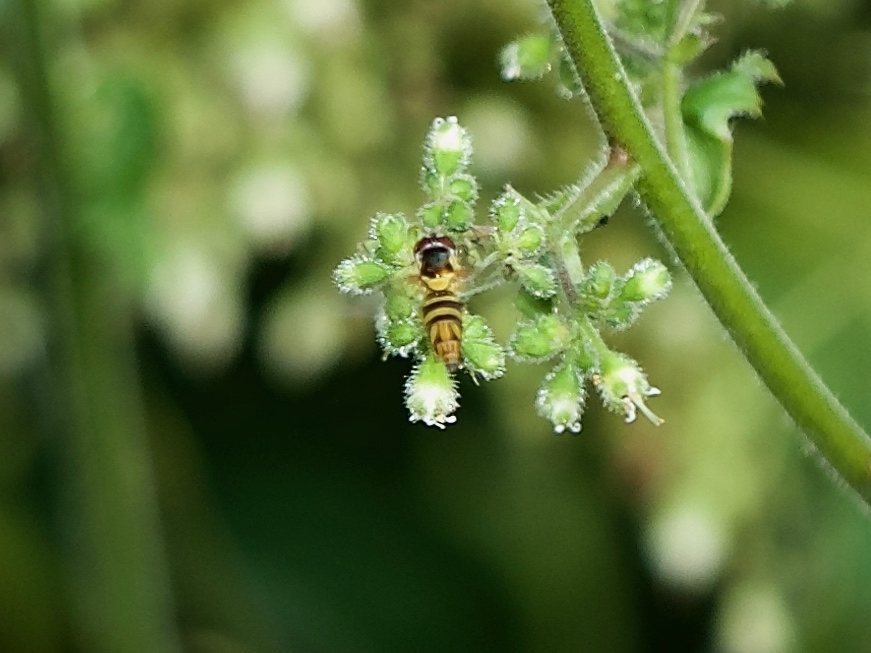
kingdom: Animalia
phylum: Arthropoda
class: Insecta
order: Diptera
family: Syrphidae
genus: Allograpta
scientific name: Allograpta obliqua
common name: Common oblique syrphid
